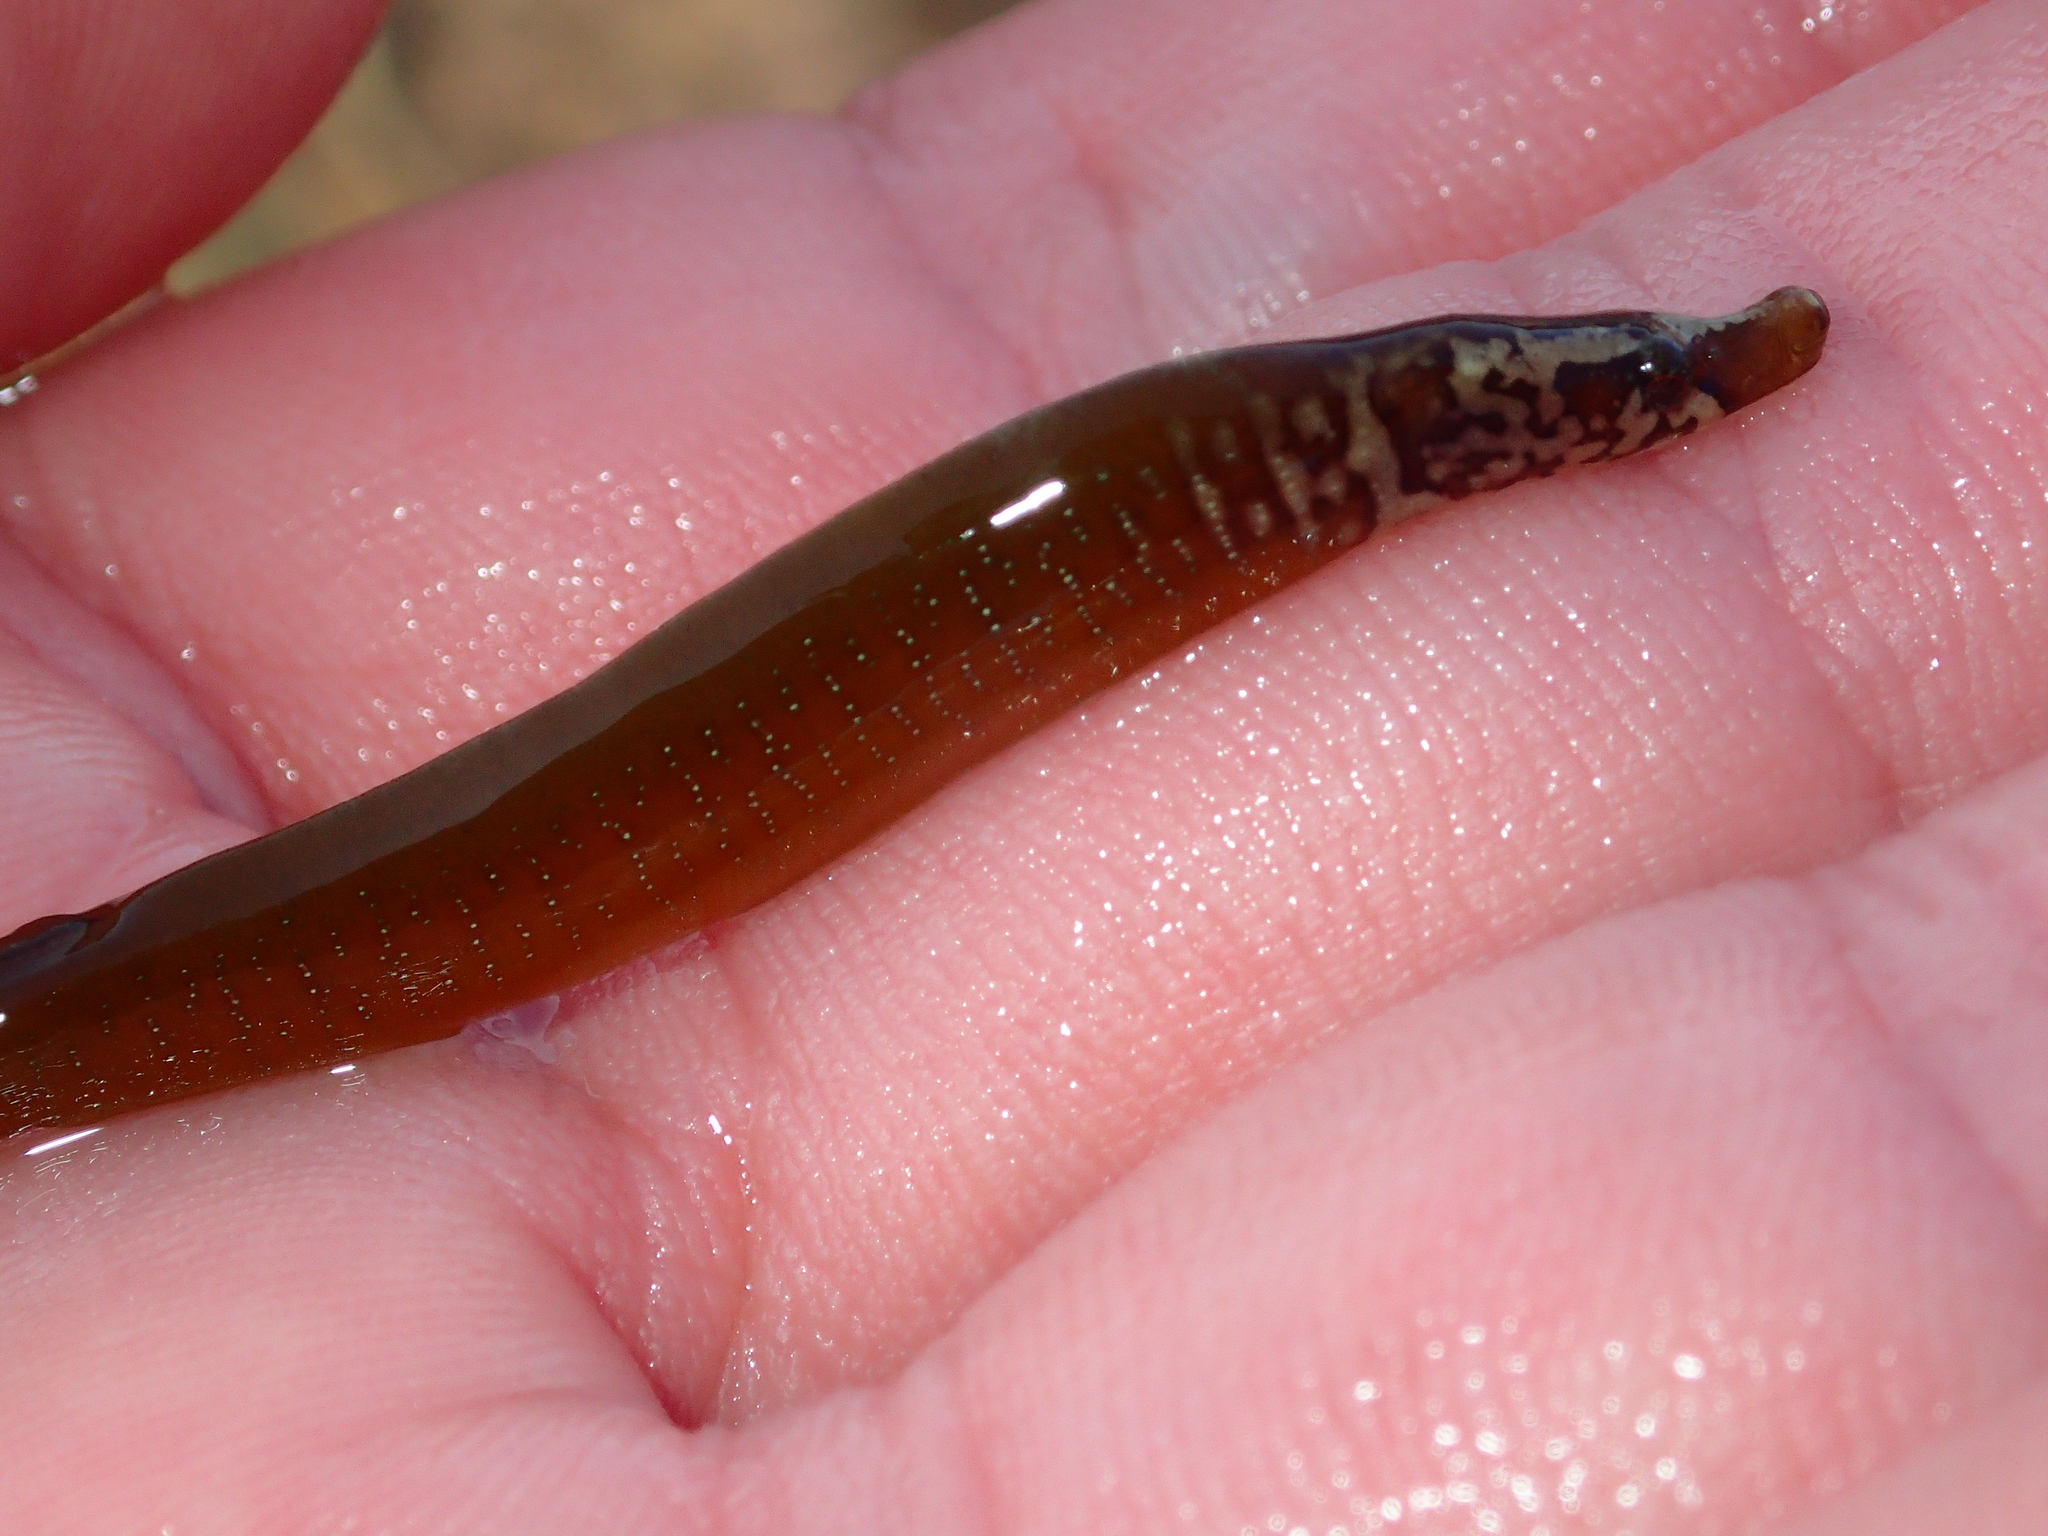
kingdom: Animalia
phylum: Chordata
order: Syngnathiformes
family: Syngnathidae
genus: Nerophis
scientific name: Nerophis lumbriciformis
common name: Worm pipefish
